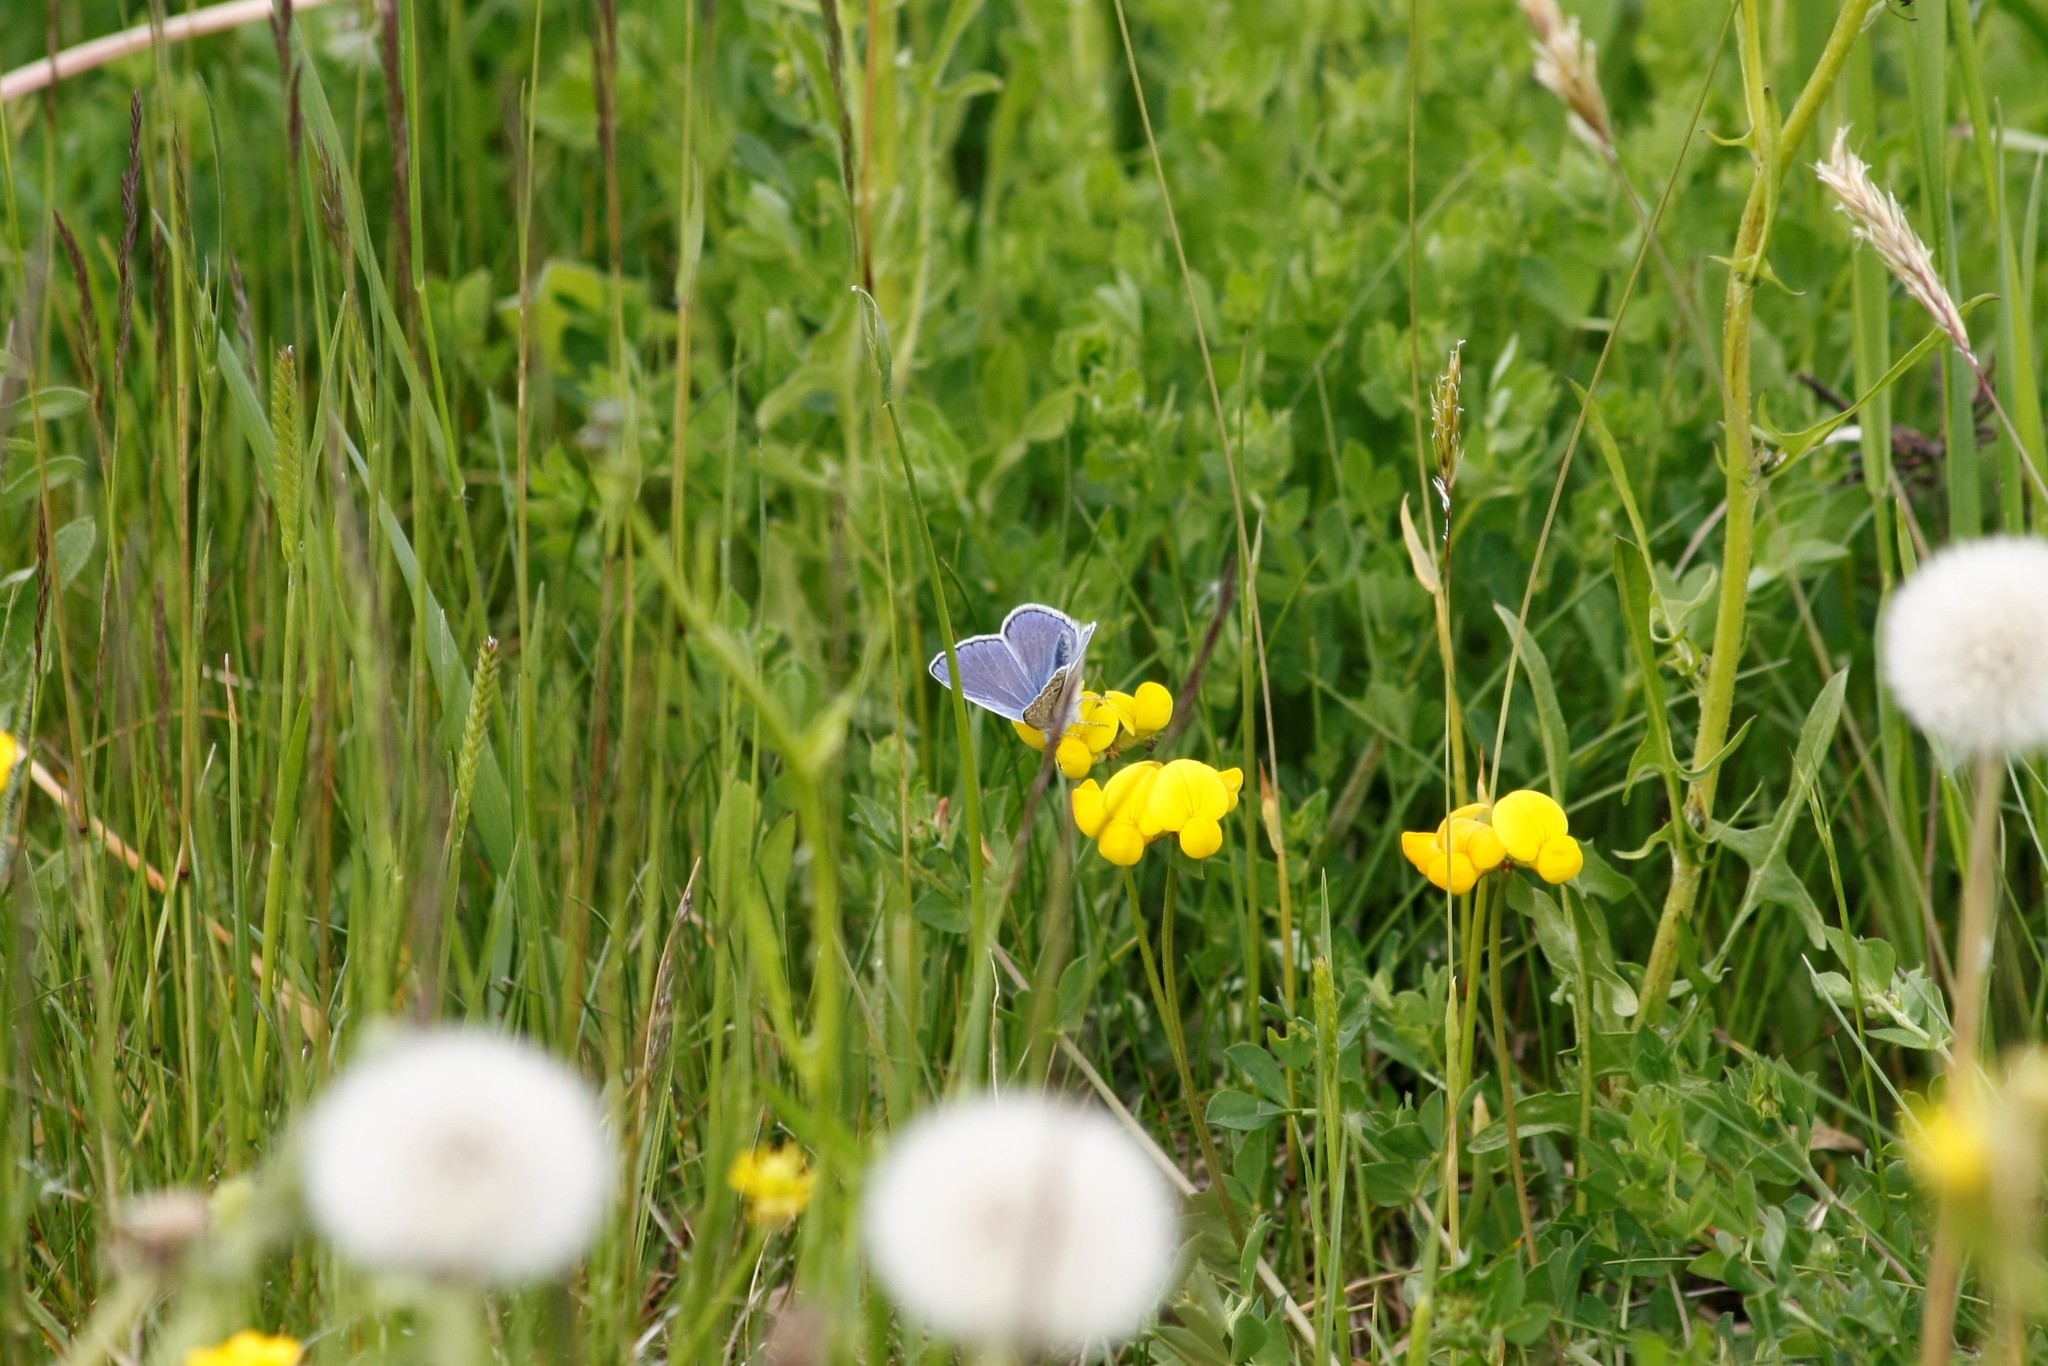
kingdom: Animalia
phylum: Arthropoda
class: Insecta
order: Lepidoptera
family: Lycaenidae
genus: Polyommatus
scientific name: Polyommatus icarus
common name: Common blue
